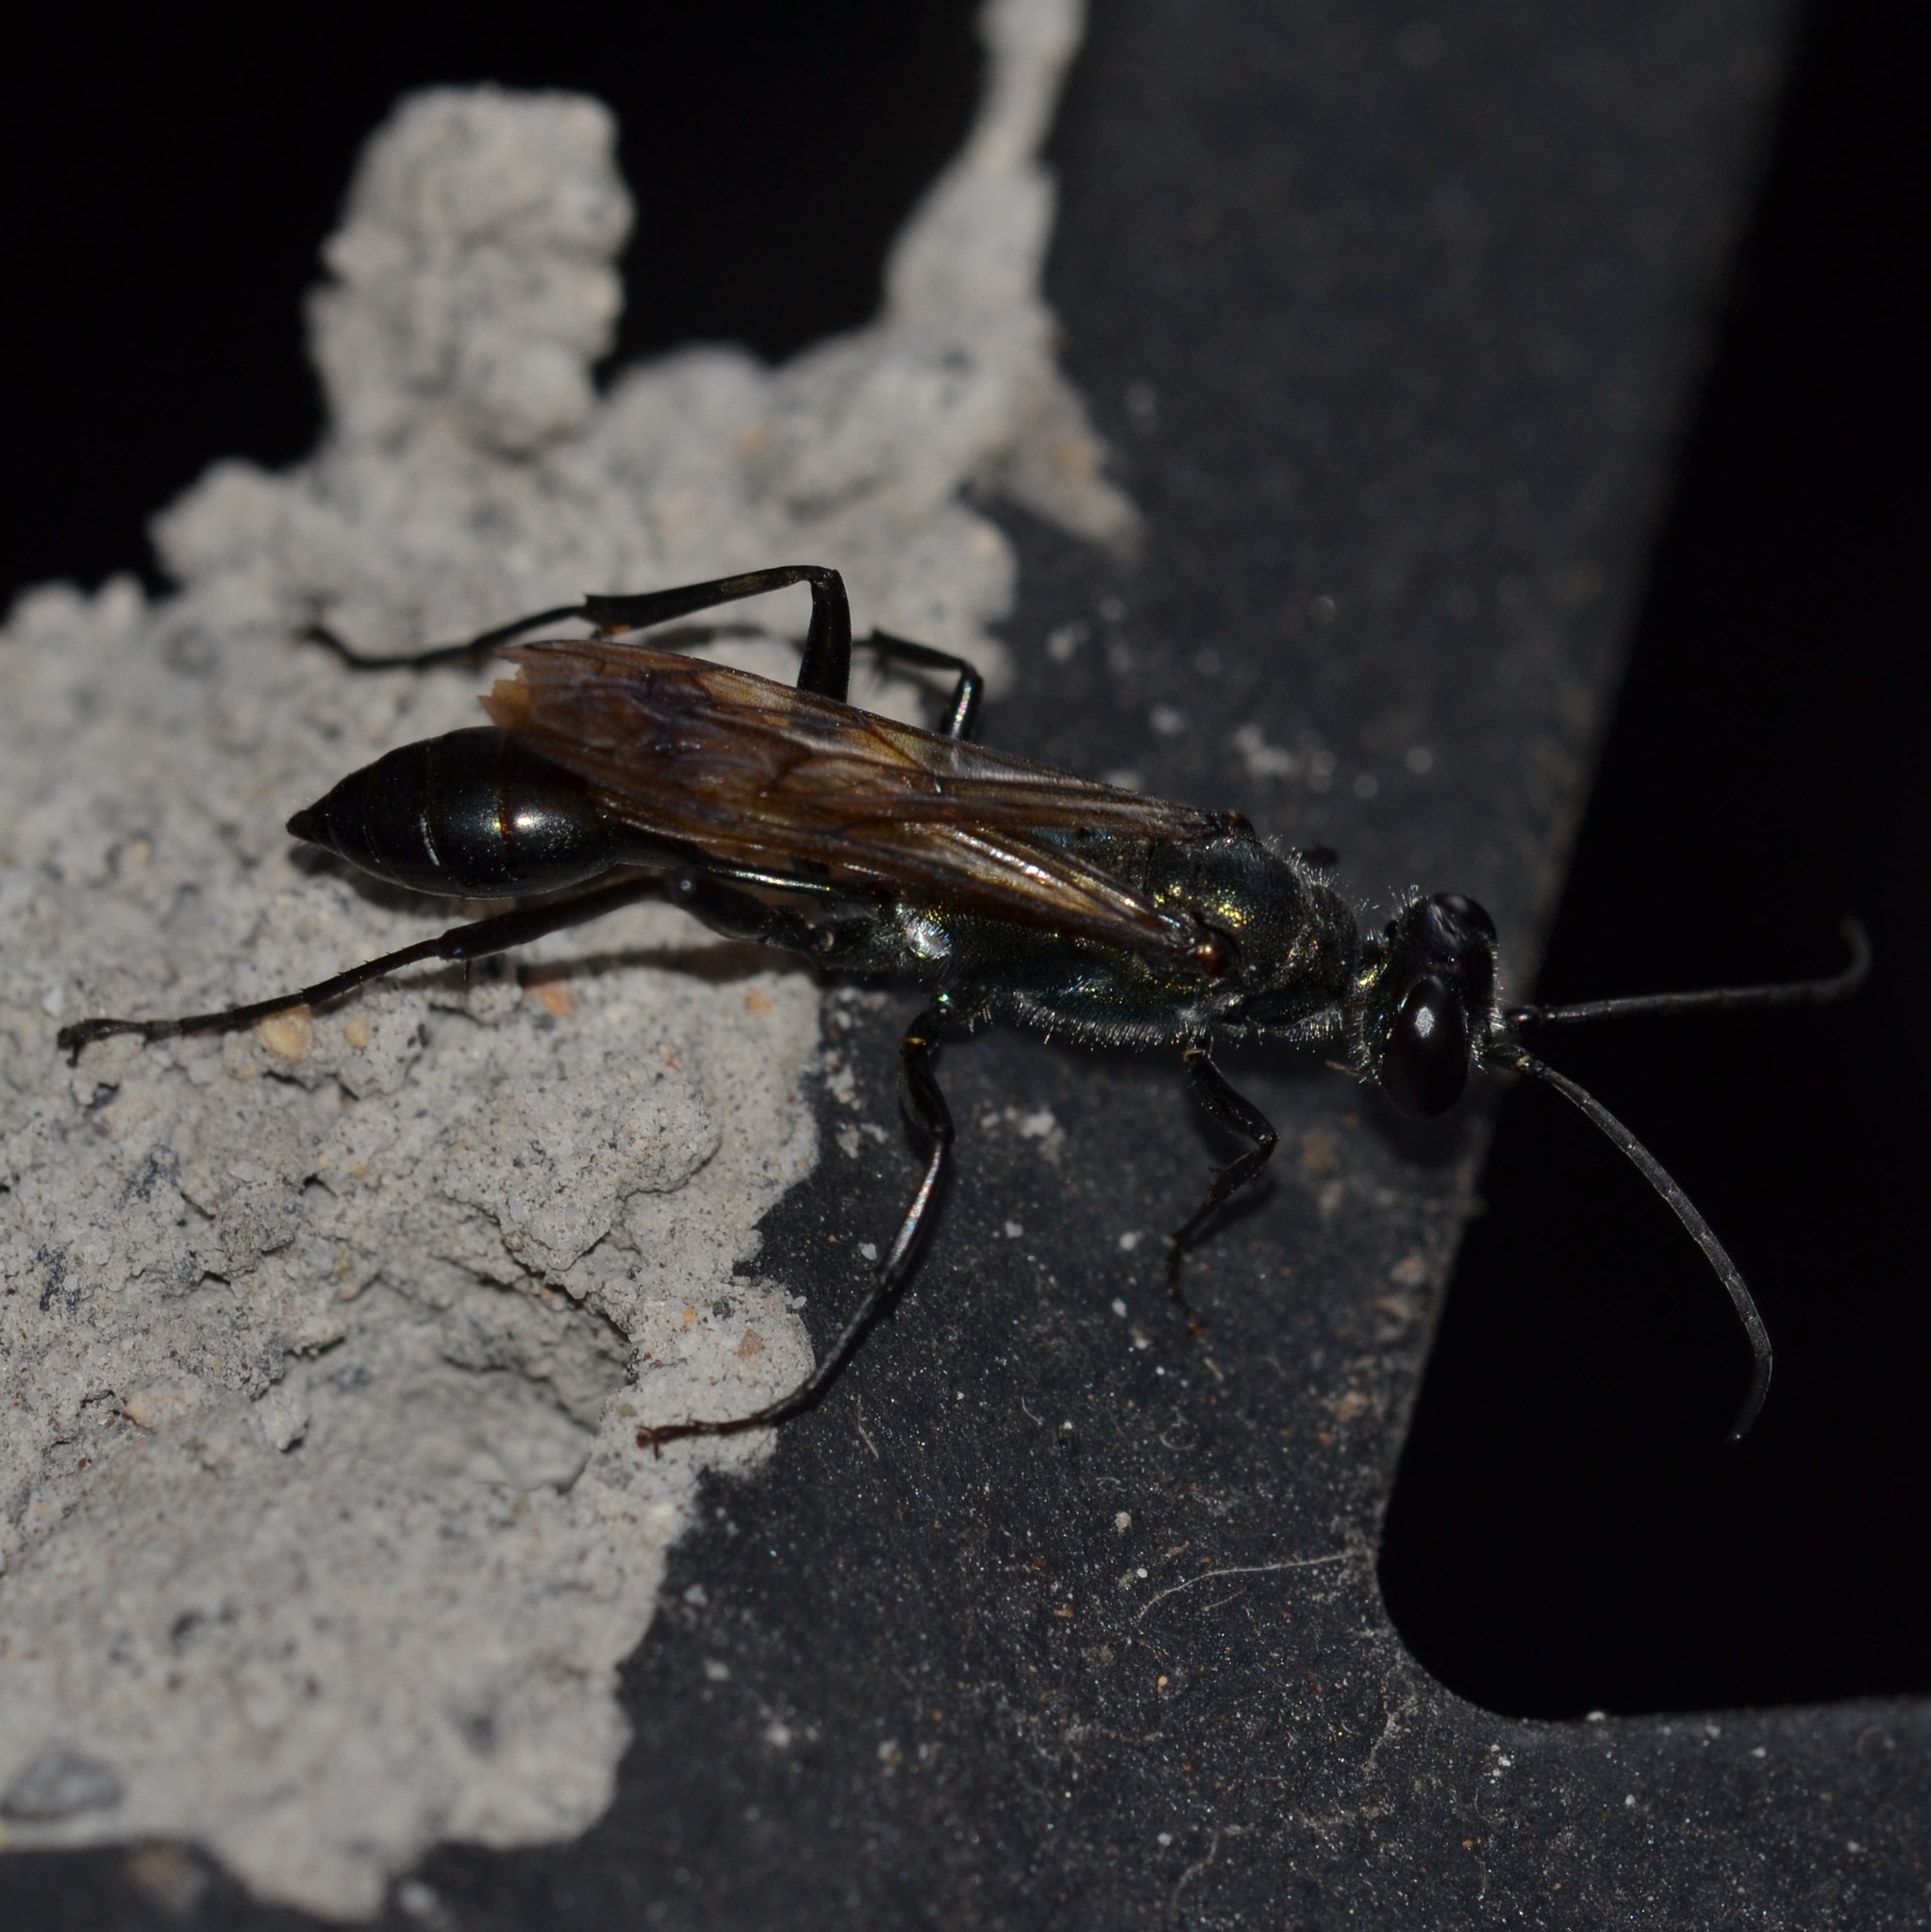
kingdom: Animalia
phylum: Arthropoda
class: Insecta
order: Hymenoptera
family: Sphecidae
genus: Chalybion
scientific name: Chalybion bengalense
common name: Mud dauber
